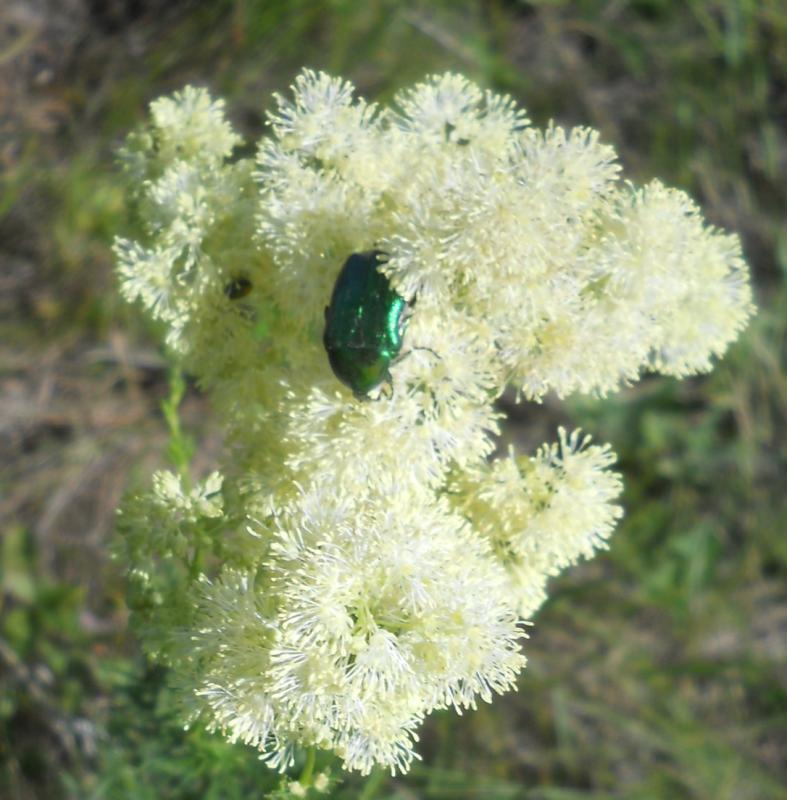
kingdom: Animalia
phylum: Arthropoda
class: Insecta
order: Coleoptera
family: Scarabaeidae
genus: Cetonia
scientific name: Cetonia aurata
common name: Rose chafer
